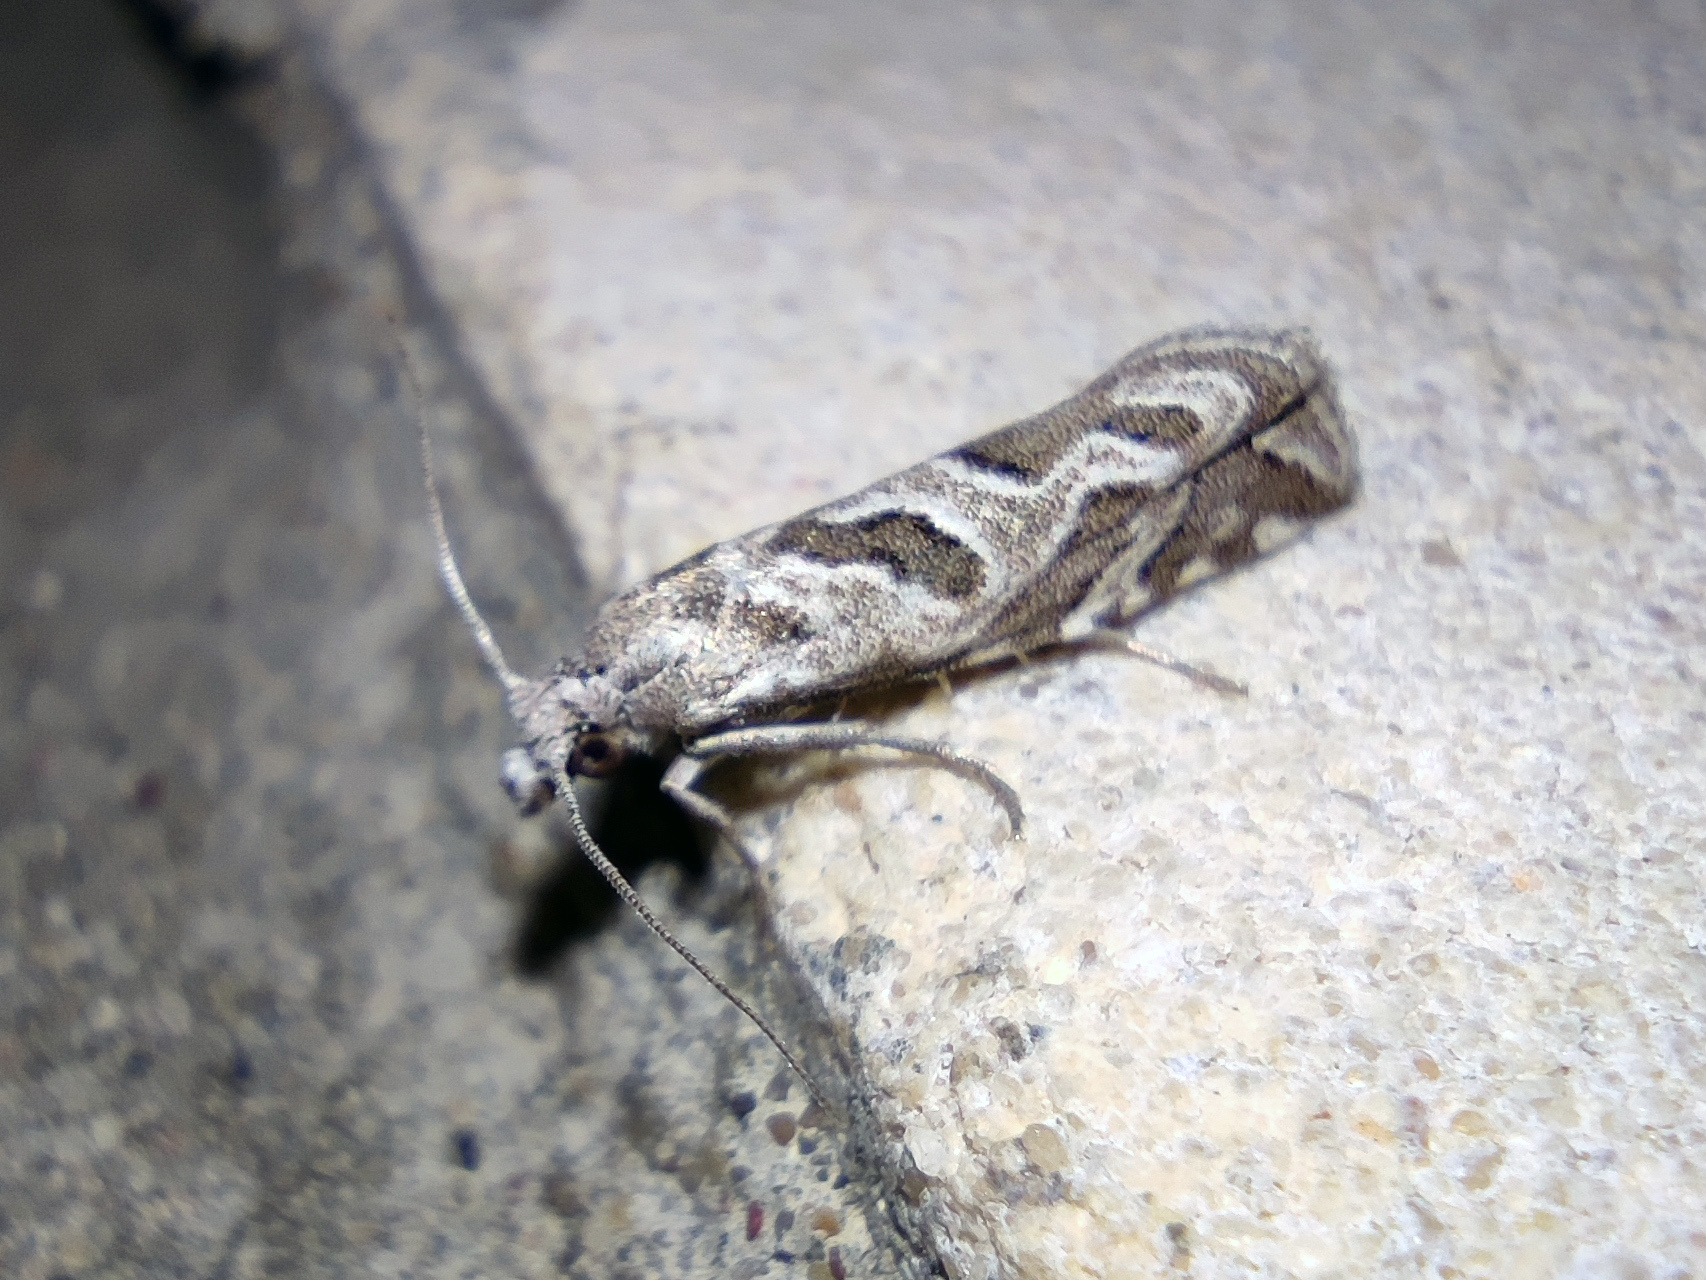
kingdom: Animalia
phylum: Arthropoda
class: Insecta
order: Lepidoptera
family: Tortricidae
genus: Pelochrista
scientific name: Pelochrista arabescana
